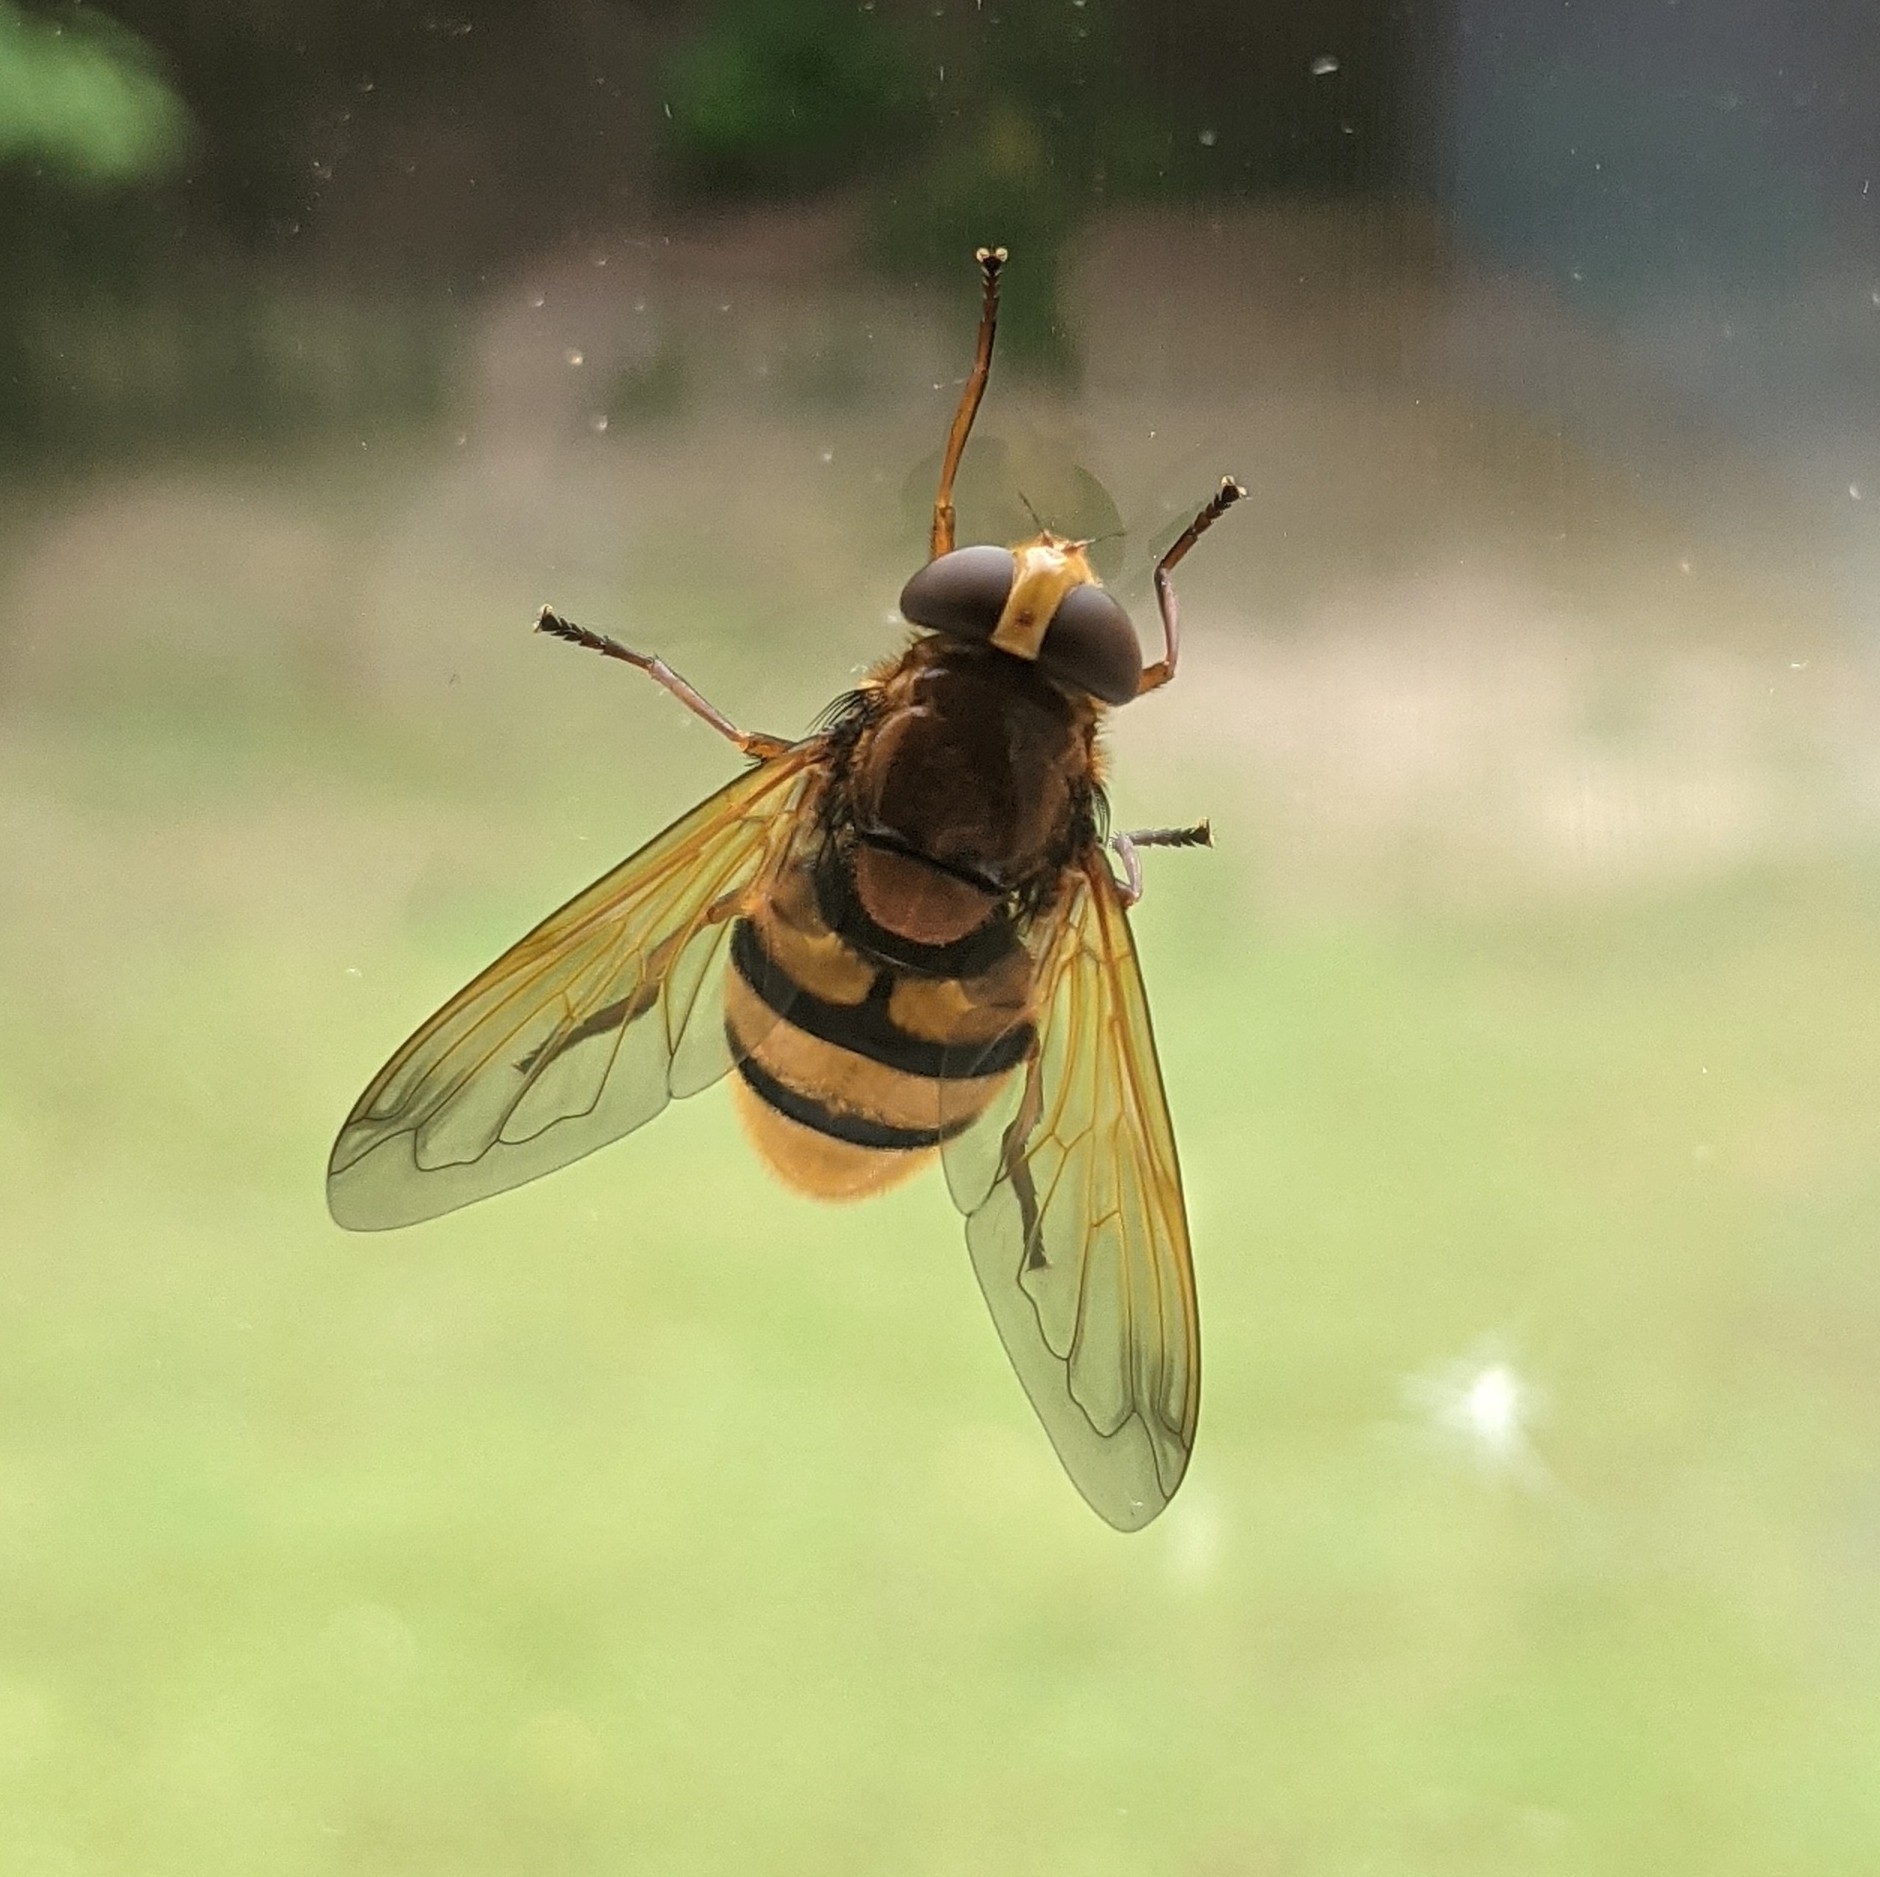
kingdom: Animalia
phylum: Arthropoda
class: Insecta
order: Diptera
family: Syrphidae
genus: Volucella
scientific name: Volucella zonaria
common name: Hornet hoverfly
